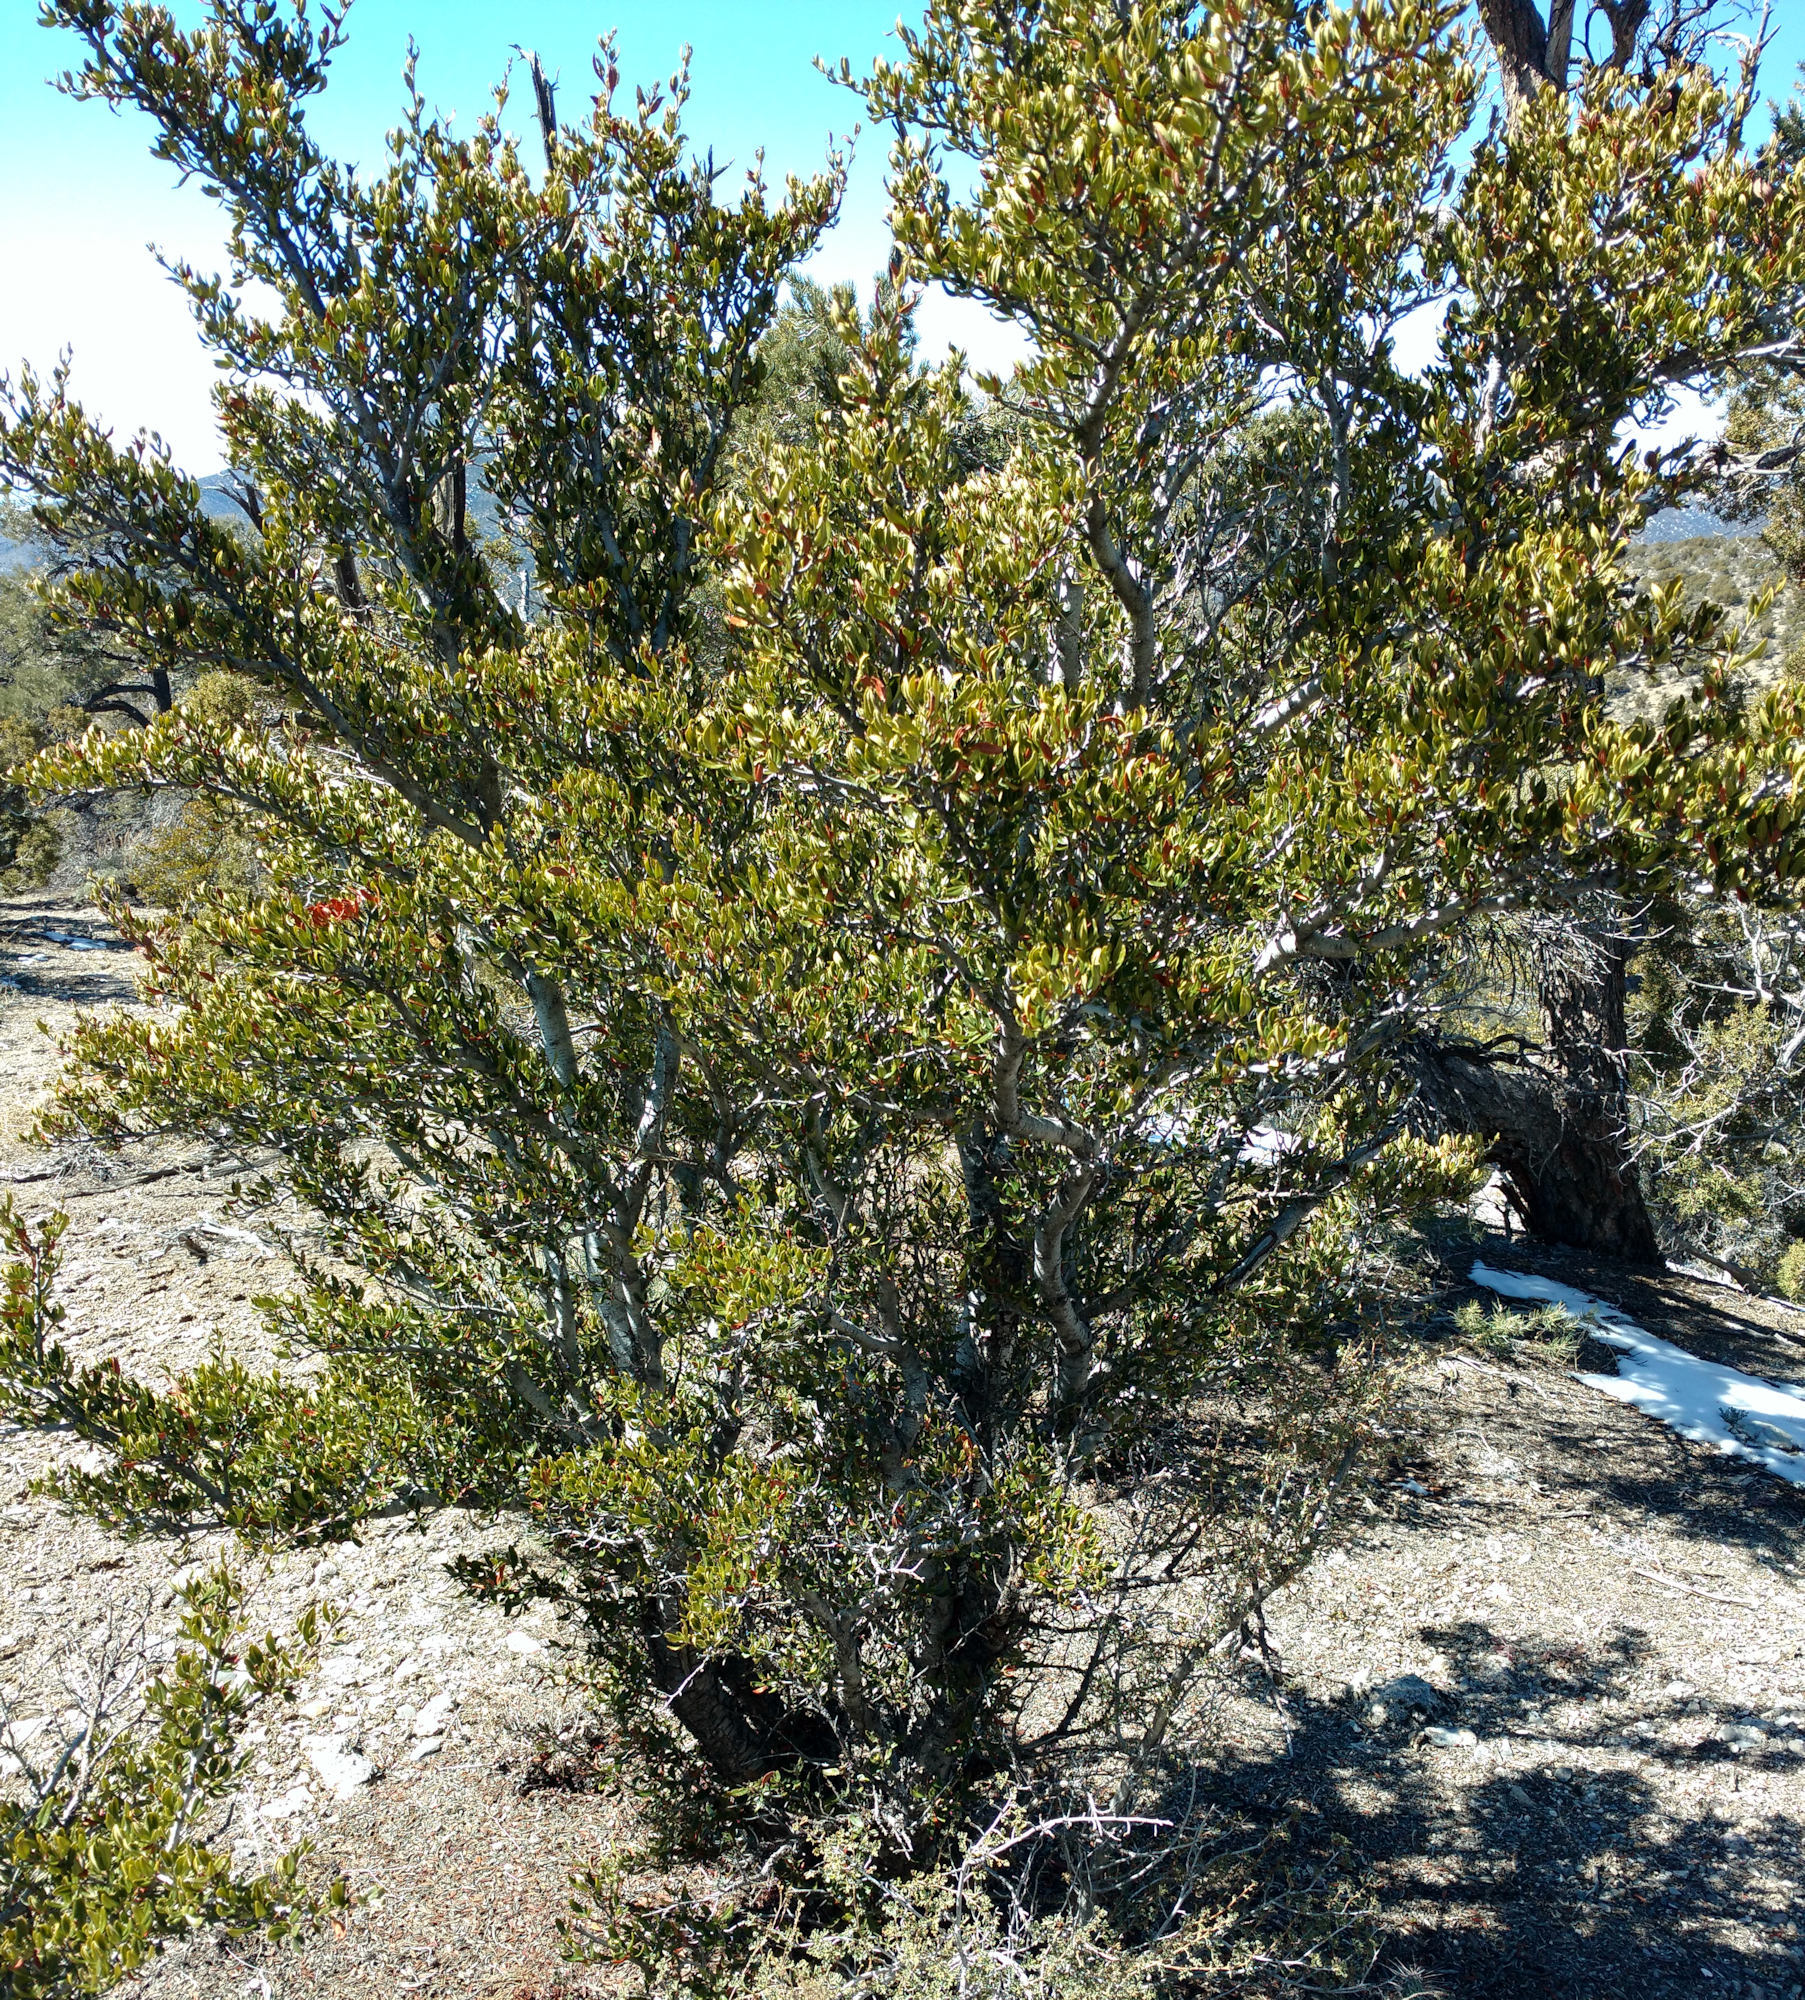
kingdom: Plantae
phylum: Tracheophyta
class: Magnoliopsida
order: Rosales
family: Rosaceae
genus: Cercocarpus
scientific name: Cercocarpus ledifolius
